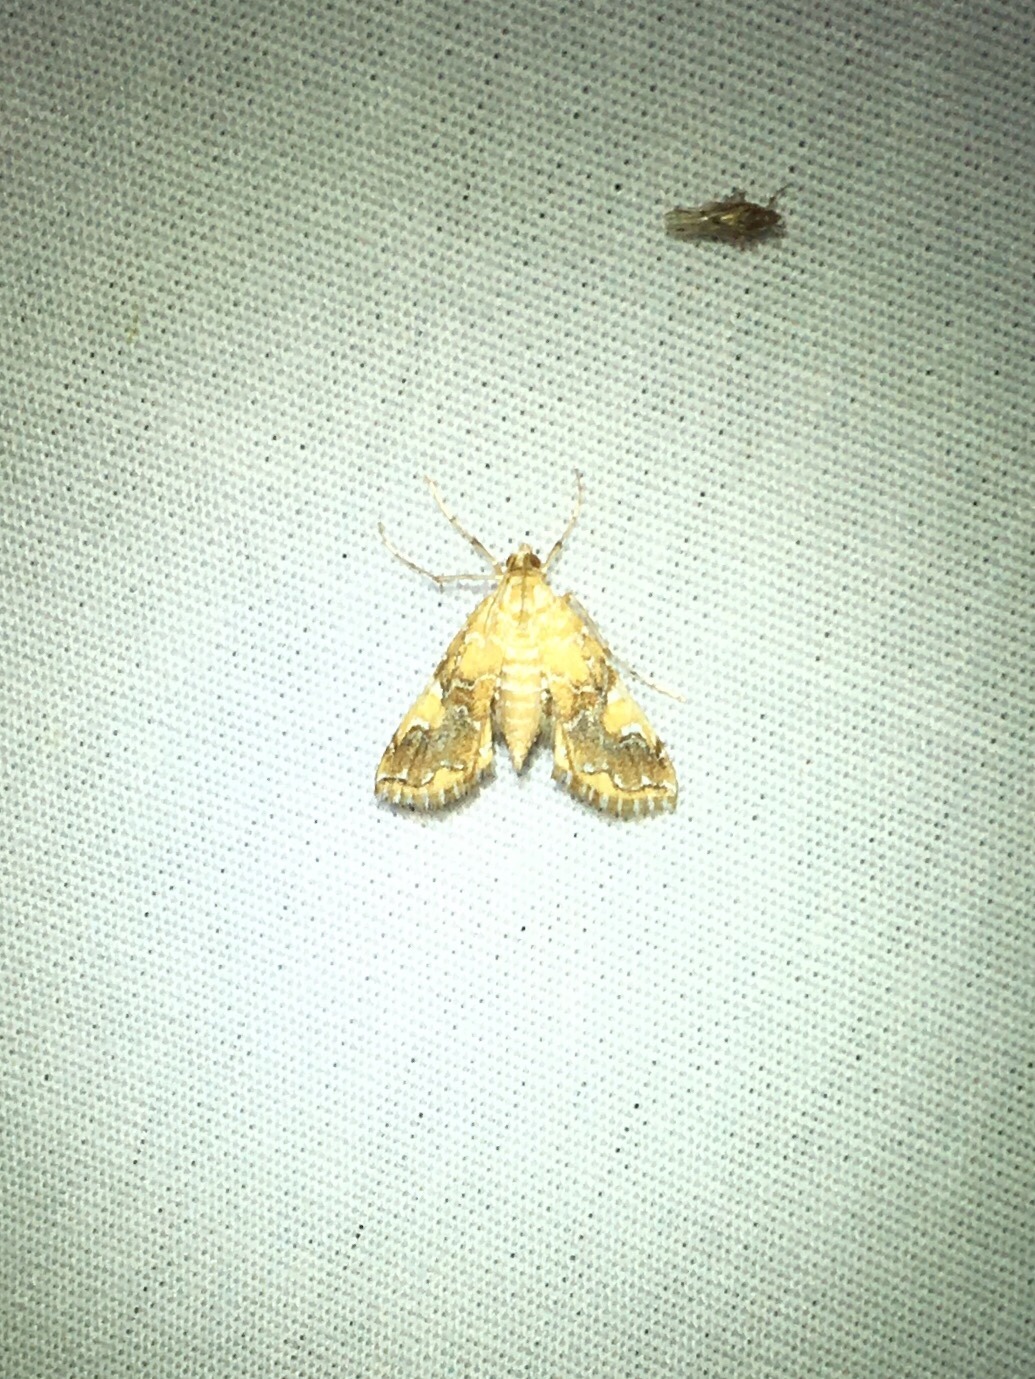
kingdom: Animalia
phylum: Arthropoda
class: Insecta
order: Lepidoptera
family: Crambidae
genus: Elophila
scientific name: Elophila nebulosalis
